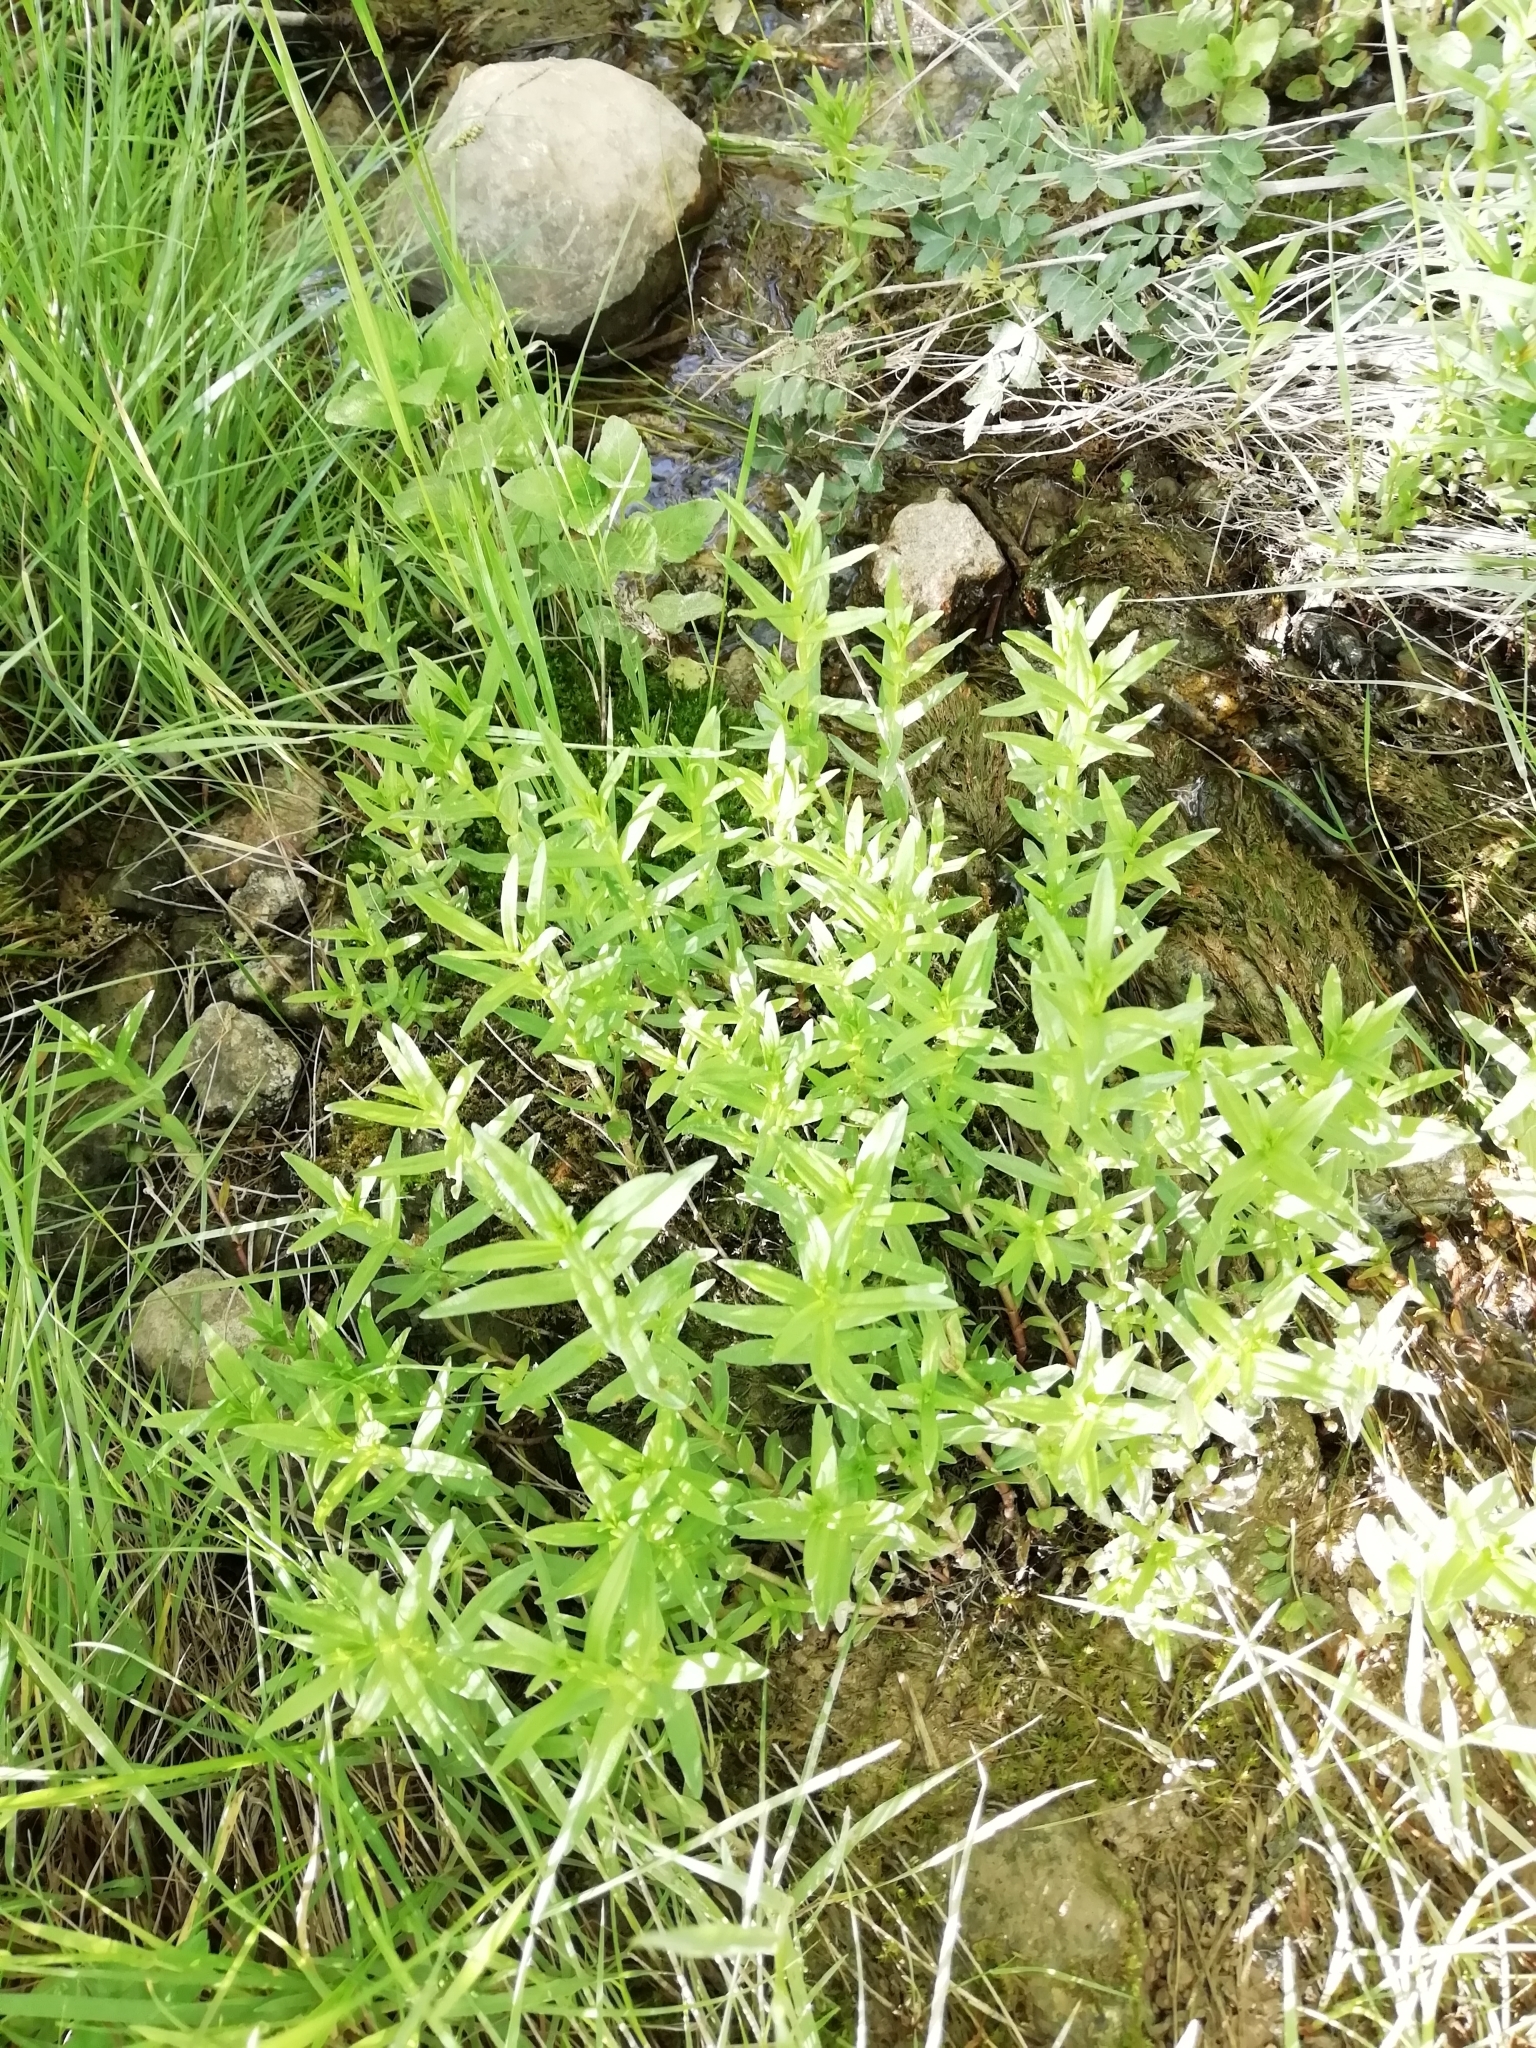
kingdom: Plantae
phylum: Tracheophyta
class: Magnoliopsida
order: Lamiales
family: Plantaginaceae
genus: Gratiola
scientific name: Gratiola officinalis
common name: Gratiola
